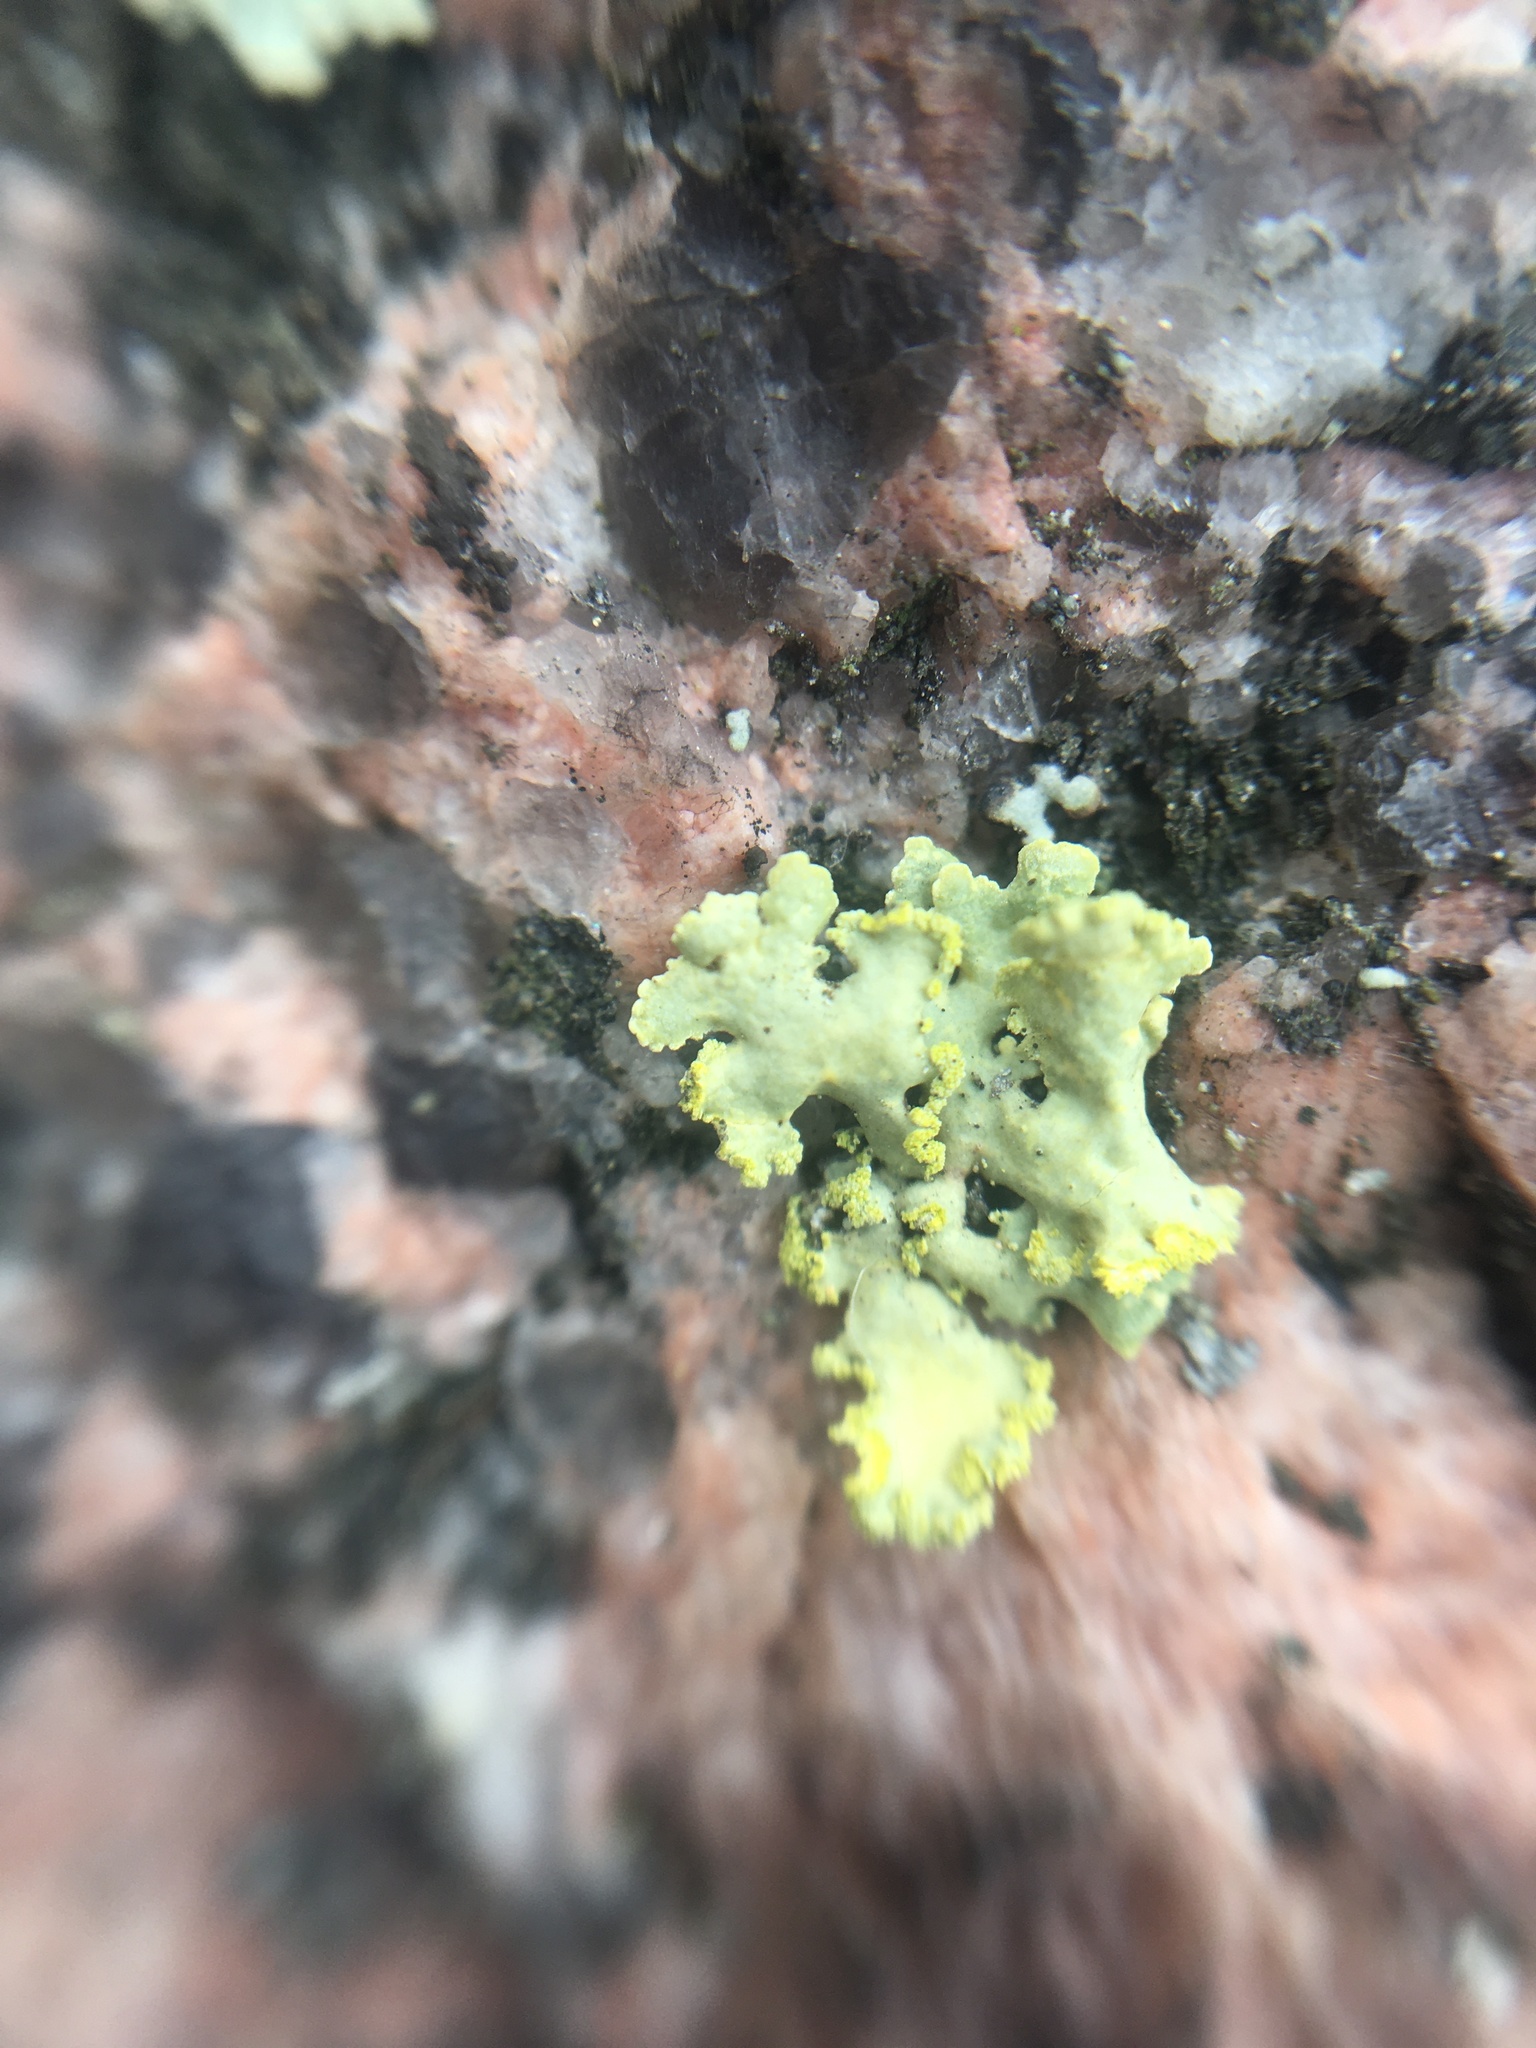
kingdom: Fungi
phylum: Ascomycota
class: Lecanoromycetes
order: Lecanorales
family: Parmeliaceae
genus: Vulpicida
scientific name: Vulpicida pinastri
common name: Powdered sunshine lichen
